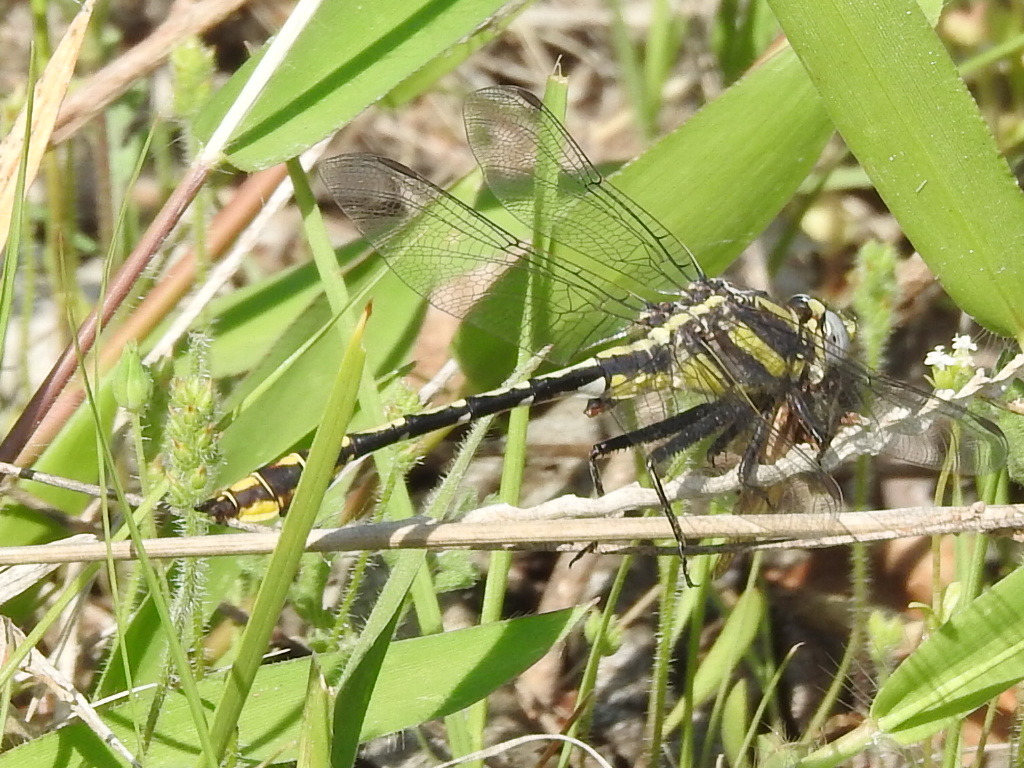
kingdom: Animalia
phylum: Arthropoda
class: Insecta
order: Odonata
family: Gomphidae
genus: Gomphurus
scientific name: Gomphurus externus
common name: Plains clubtail
